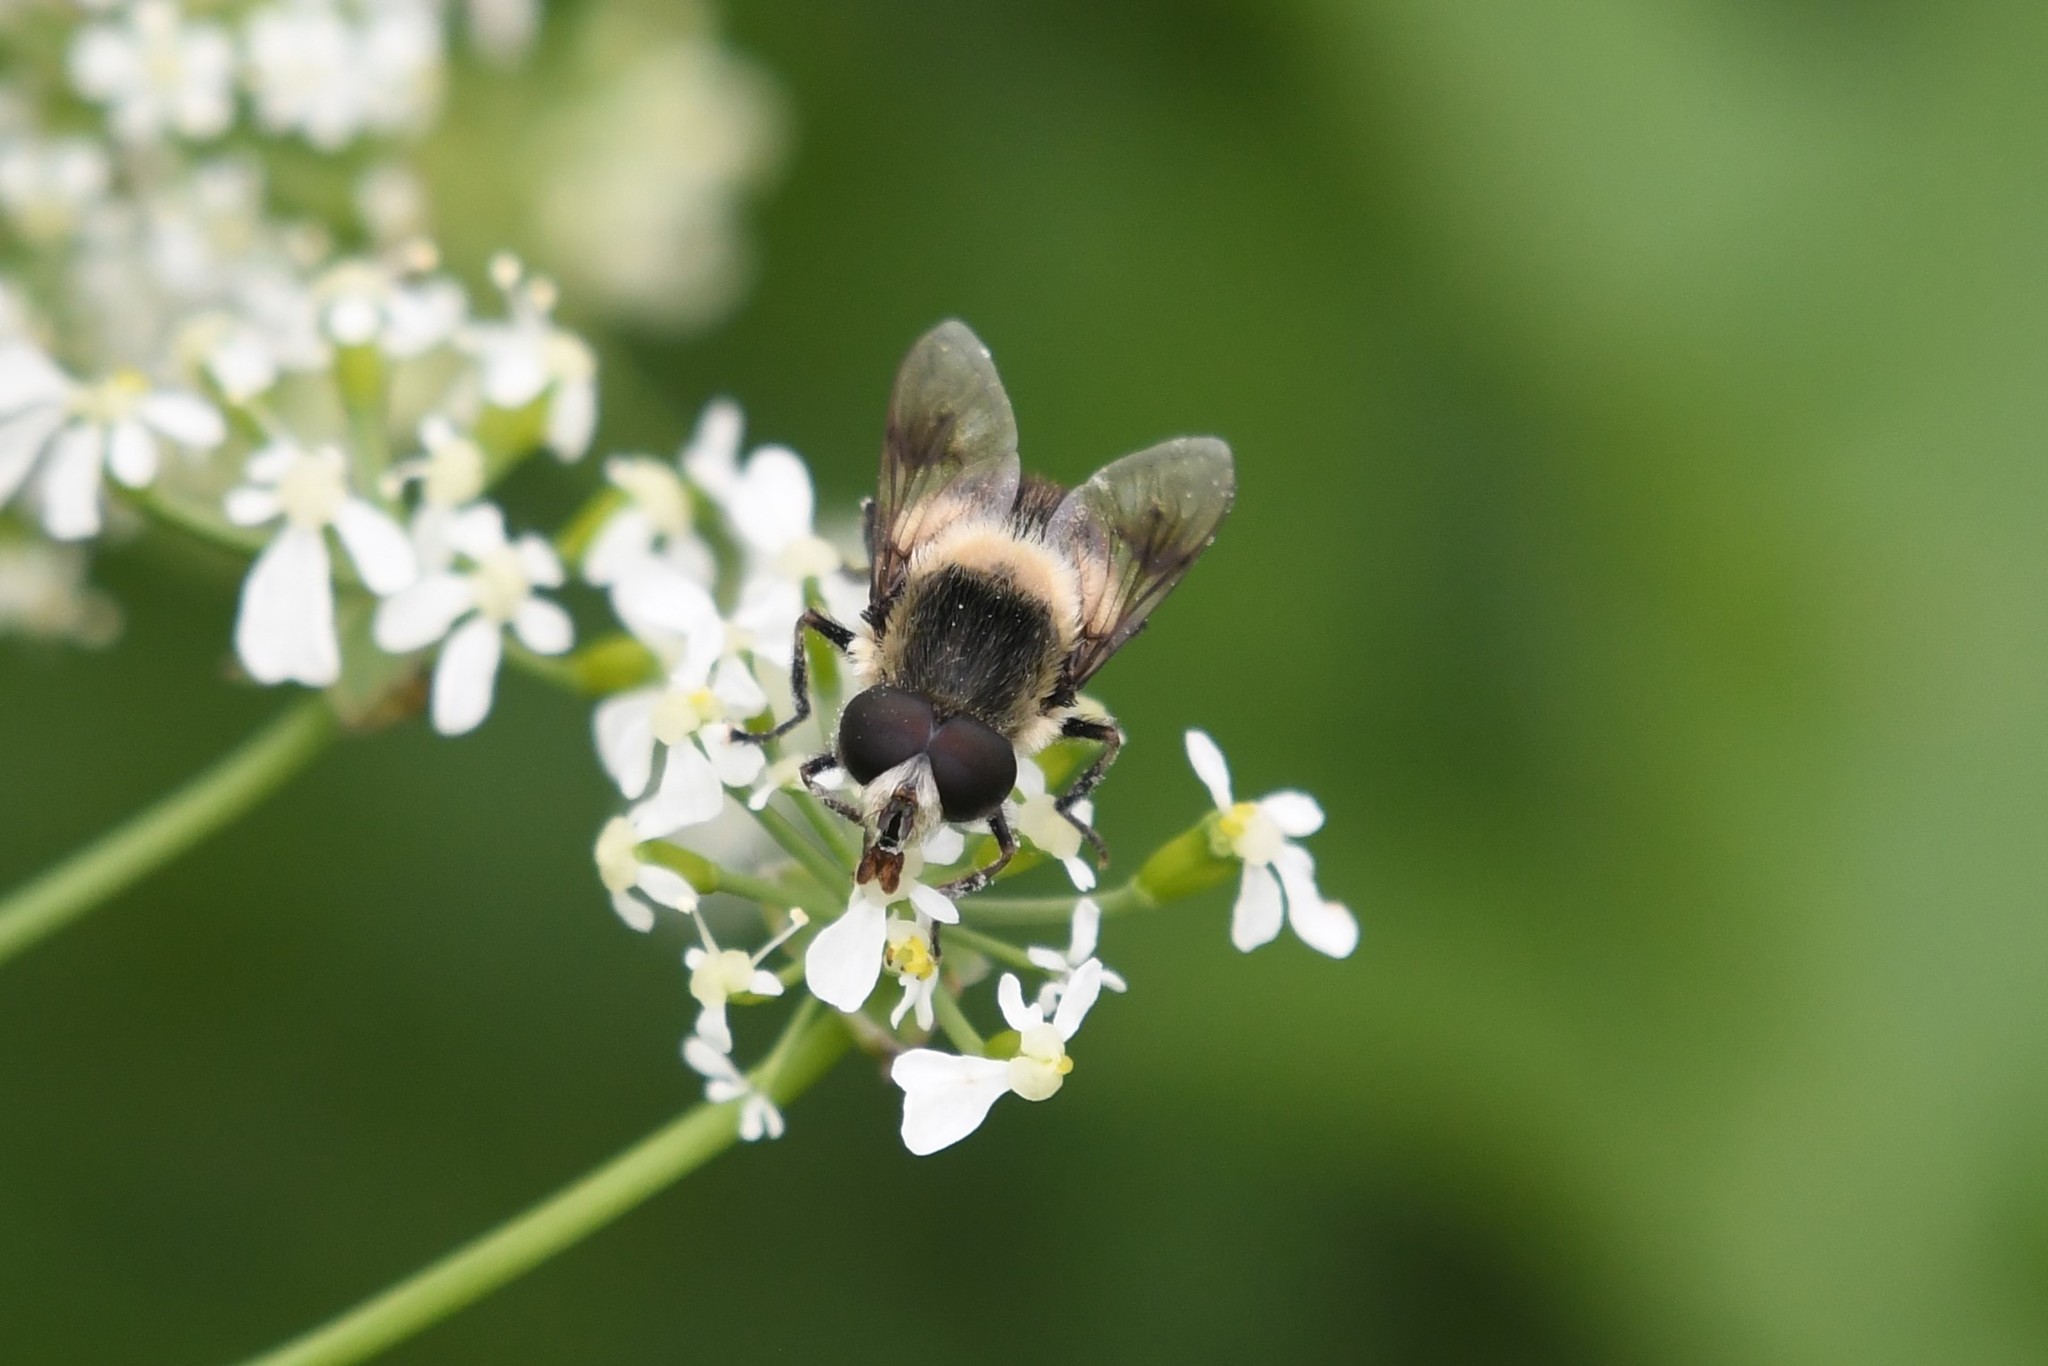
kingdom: Animalia
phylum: Arthropoda
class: Insecta
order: Diptera
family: Syrphidae
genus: Eristalis
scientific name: Eristalis anthophorina
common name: Orange-spotted drone fly
